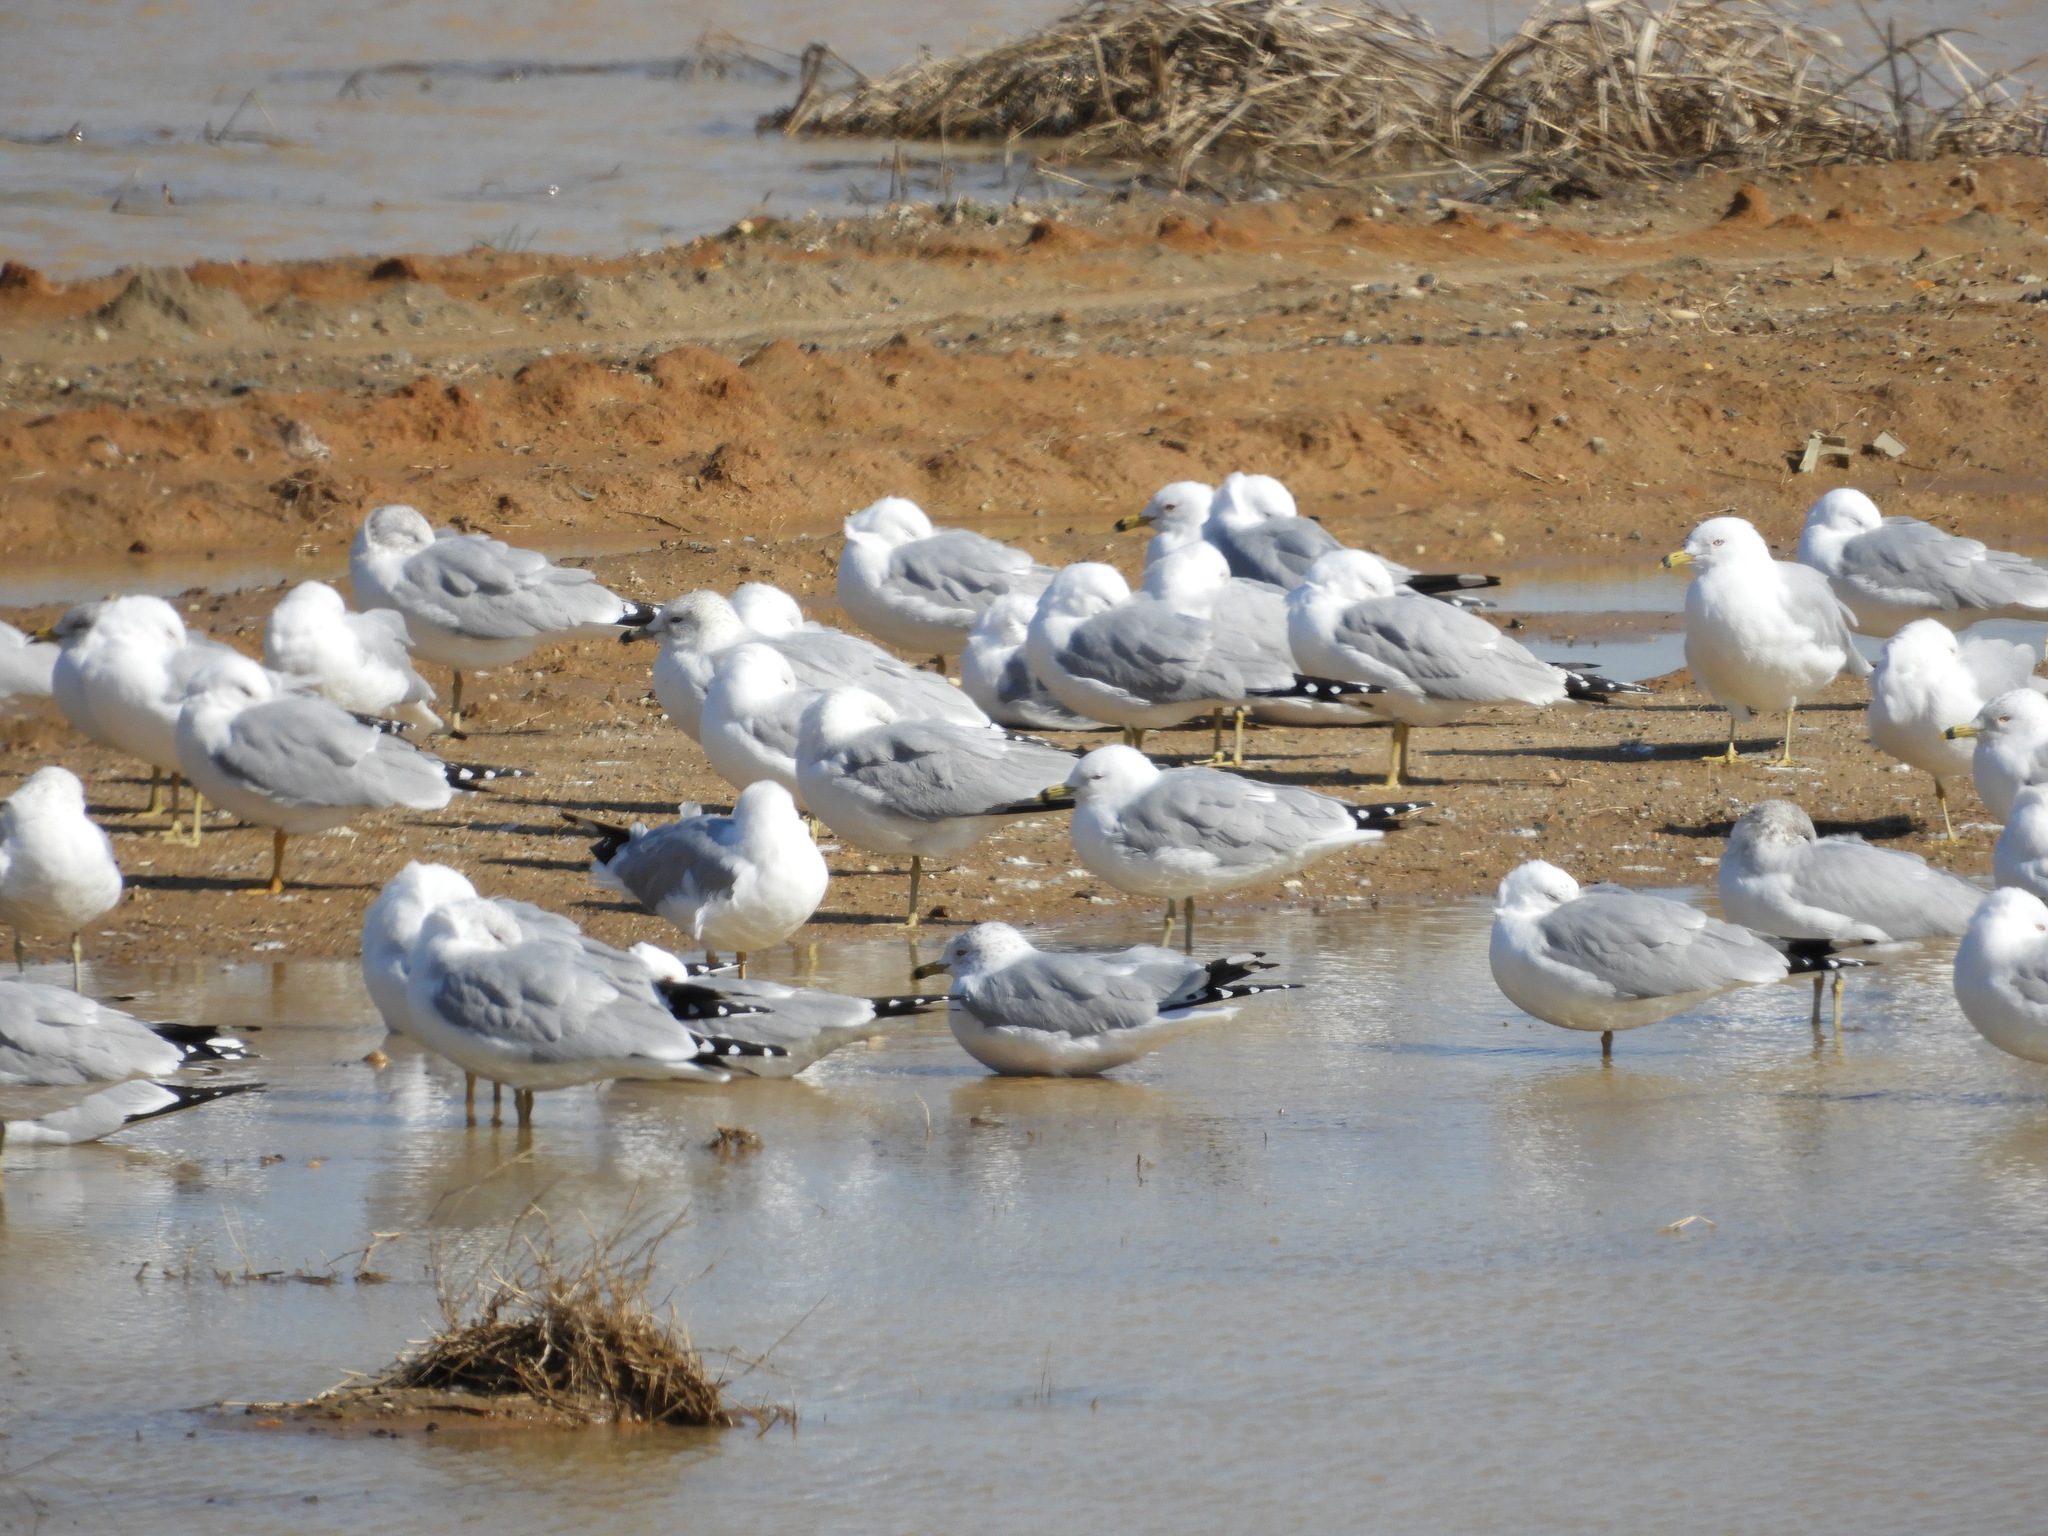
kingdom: Animalia
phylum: Chordata
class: Aves
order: Charadriiformes
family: Laridae
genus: Larus
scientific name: Larus delawarensis
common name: Ring-billed gull
